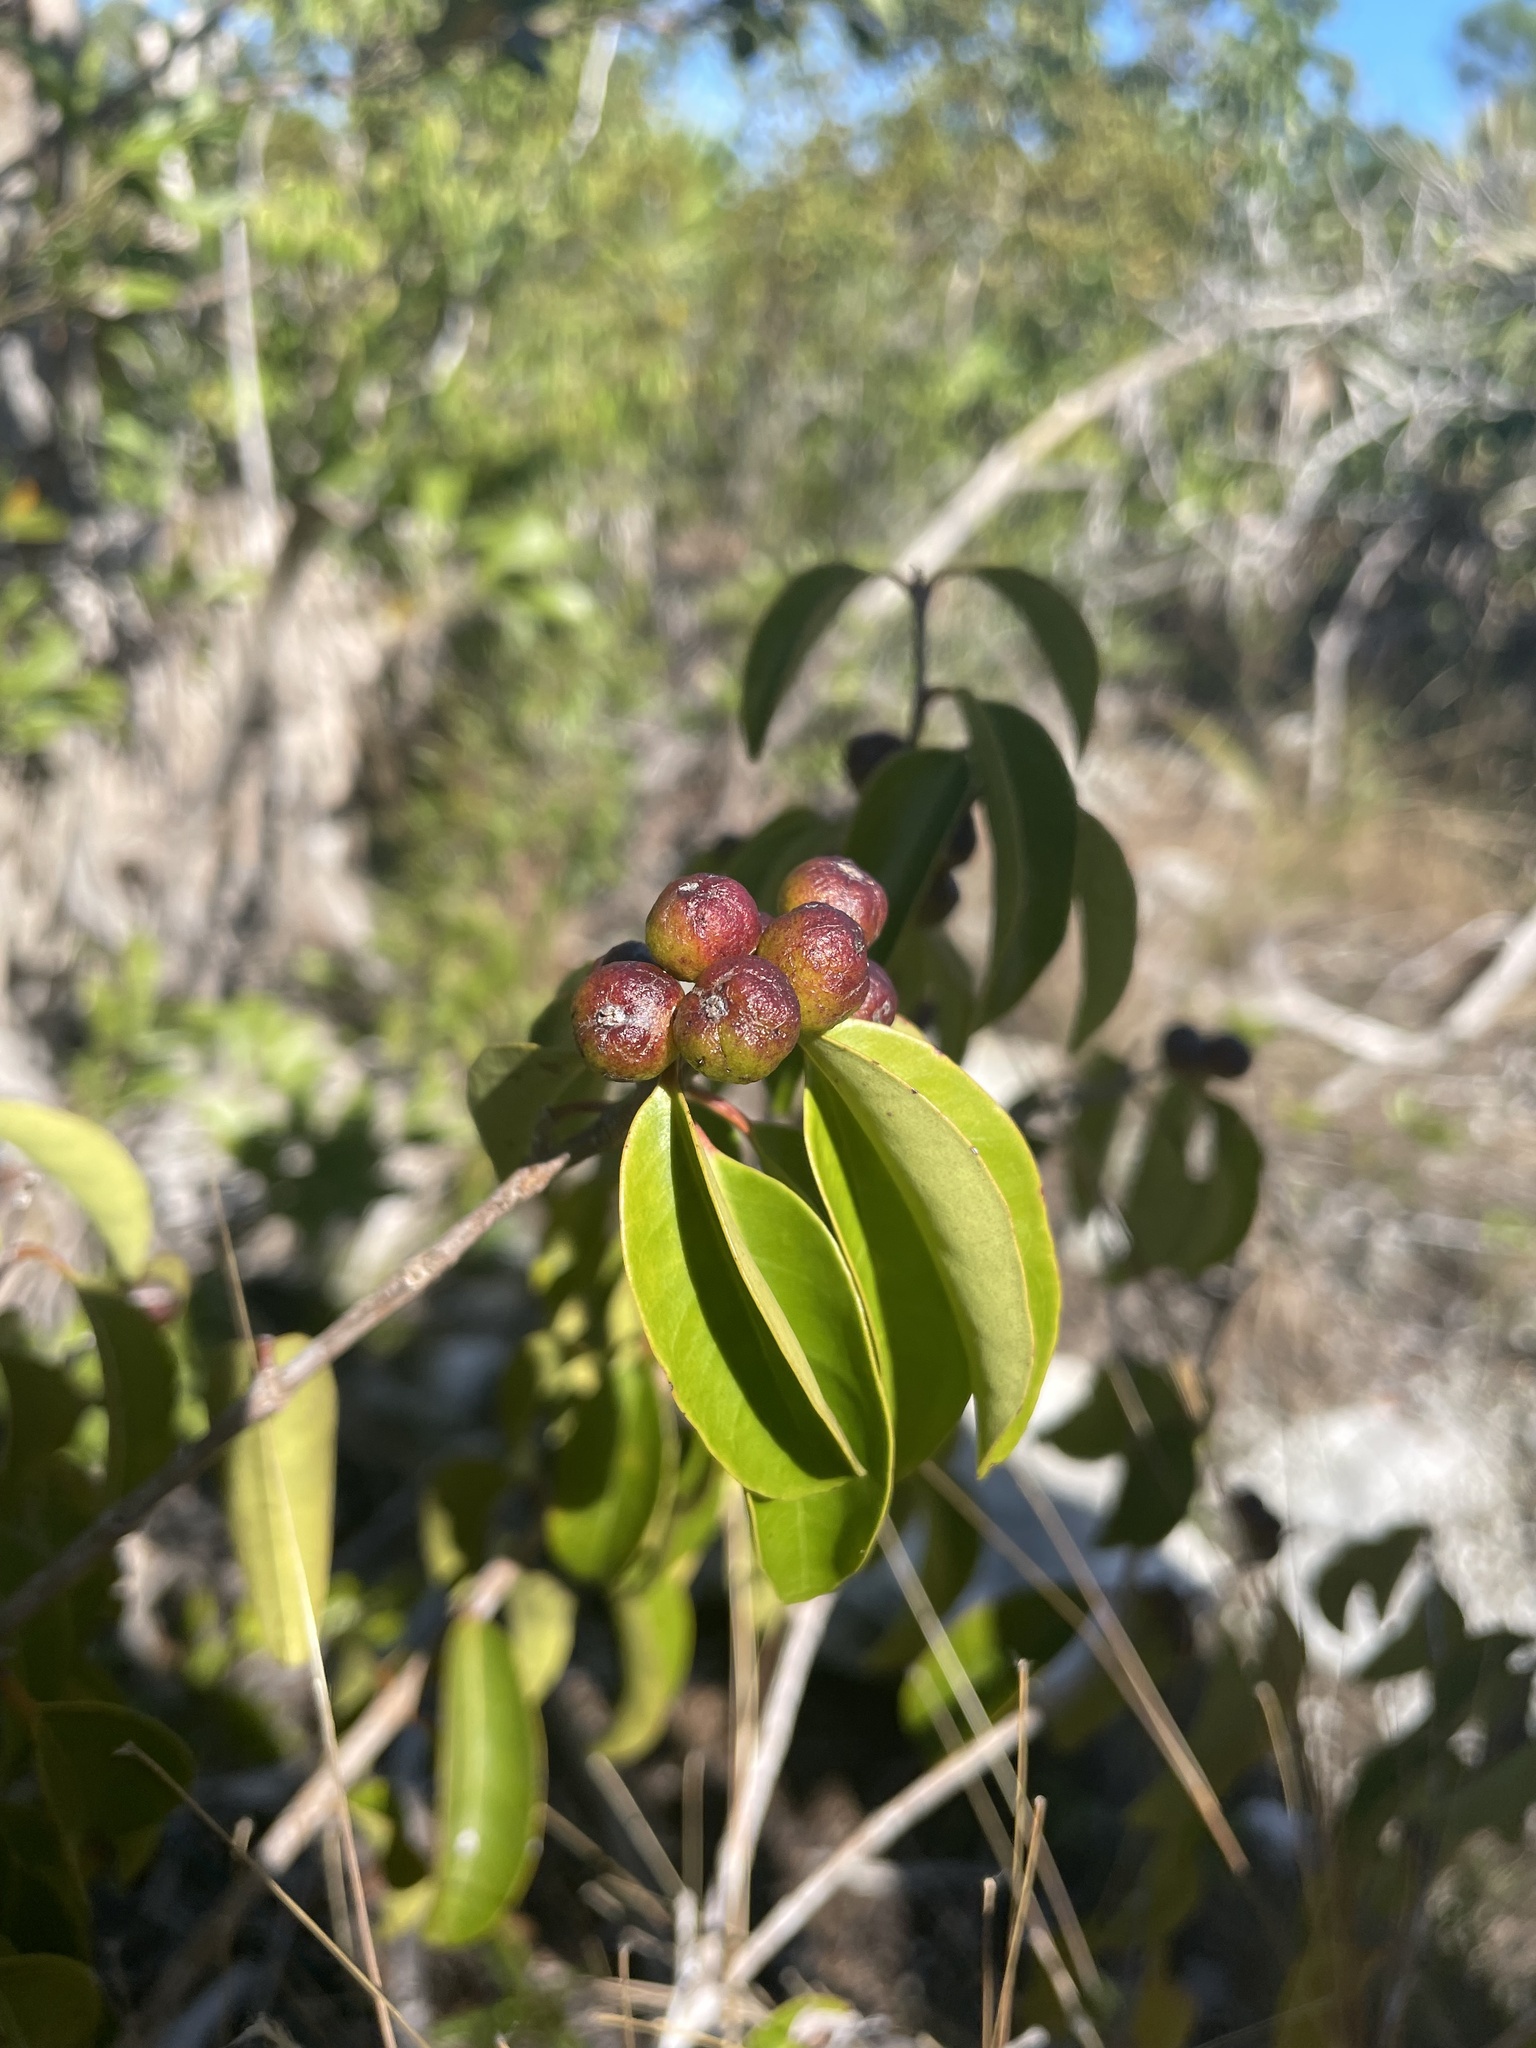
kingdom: Plantae
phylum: Tracheophyta
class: Magnoliopsida
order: Myrtales
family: Myrtaceae
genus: Eugenia
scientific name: Eugenia axillaris
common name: Choaky berry
